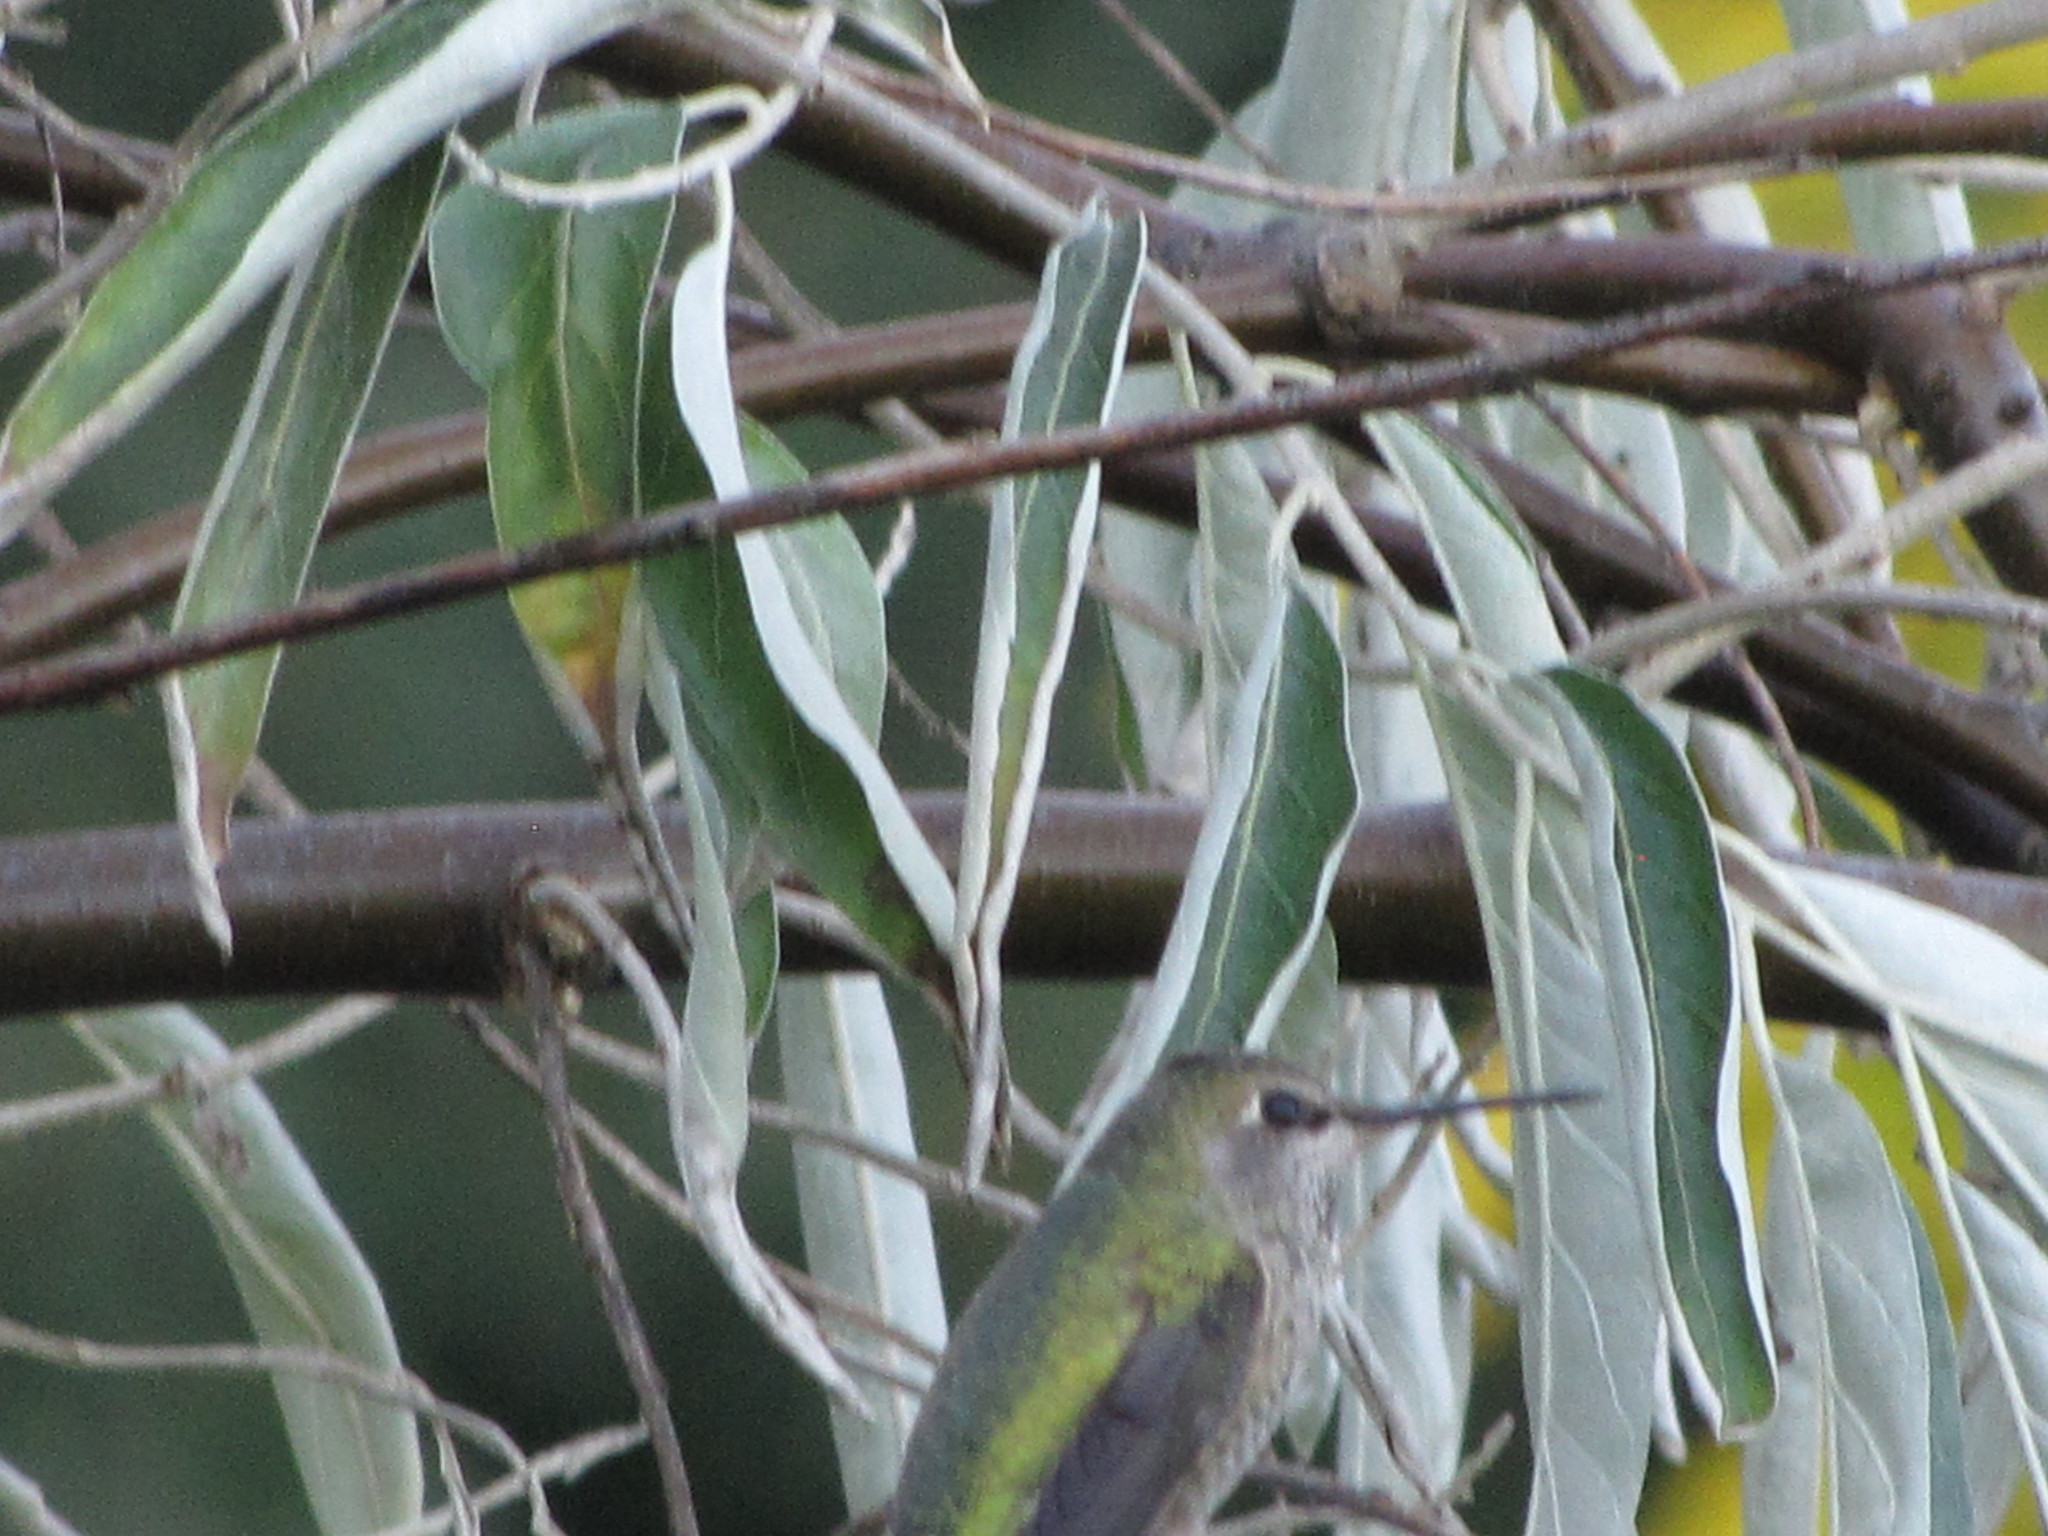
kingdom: Animalia
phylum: Chordata
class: Aves
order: Apodiformes
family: Trochilidae
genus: Calypte
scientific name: Calypte anna
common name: Anna's hummingbird
